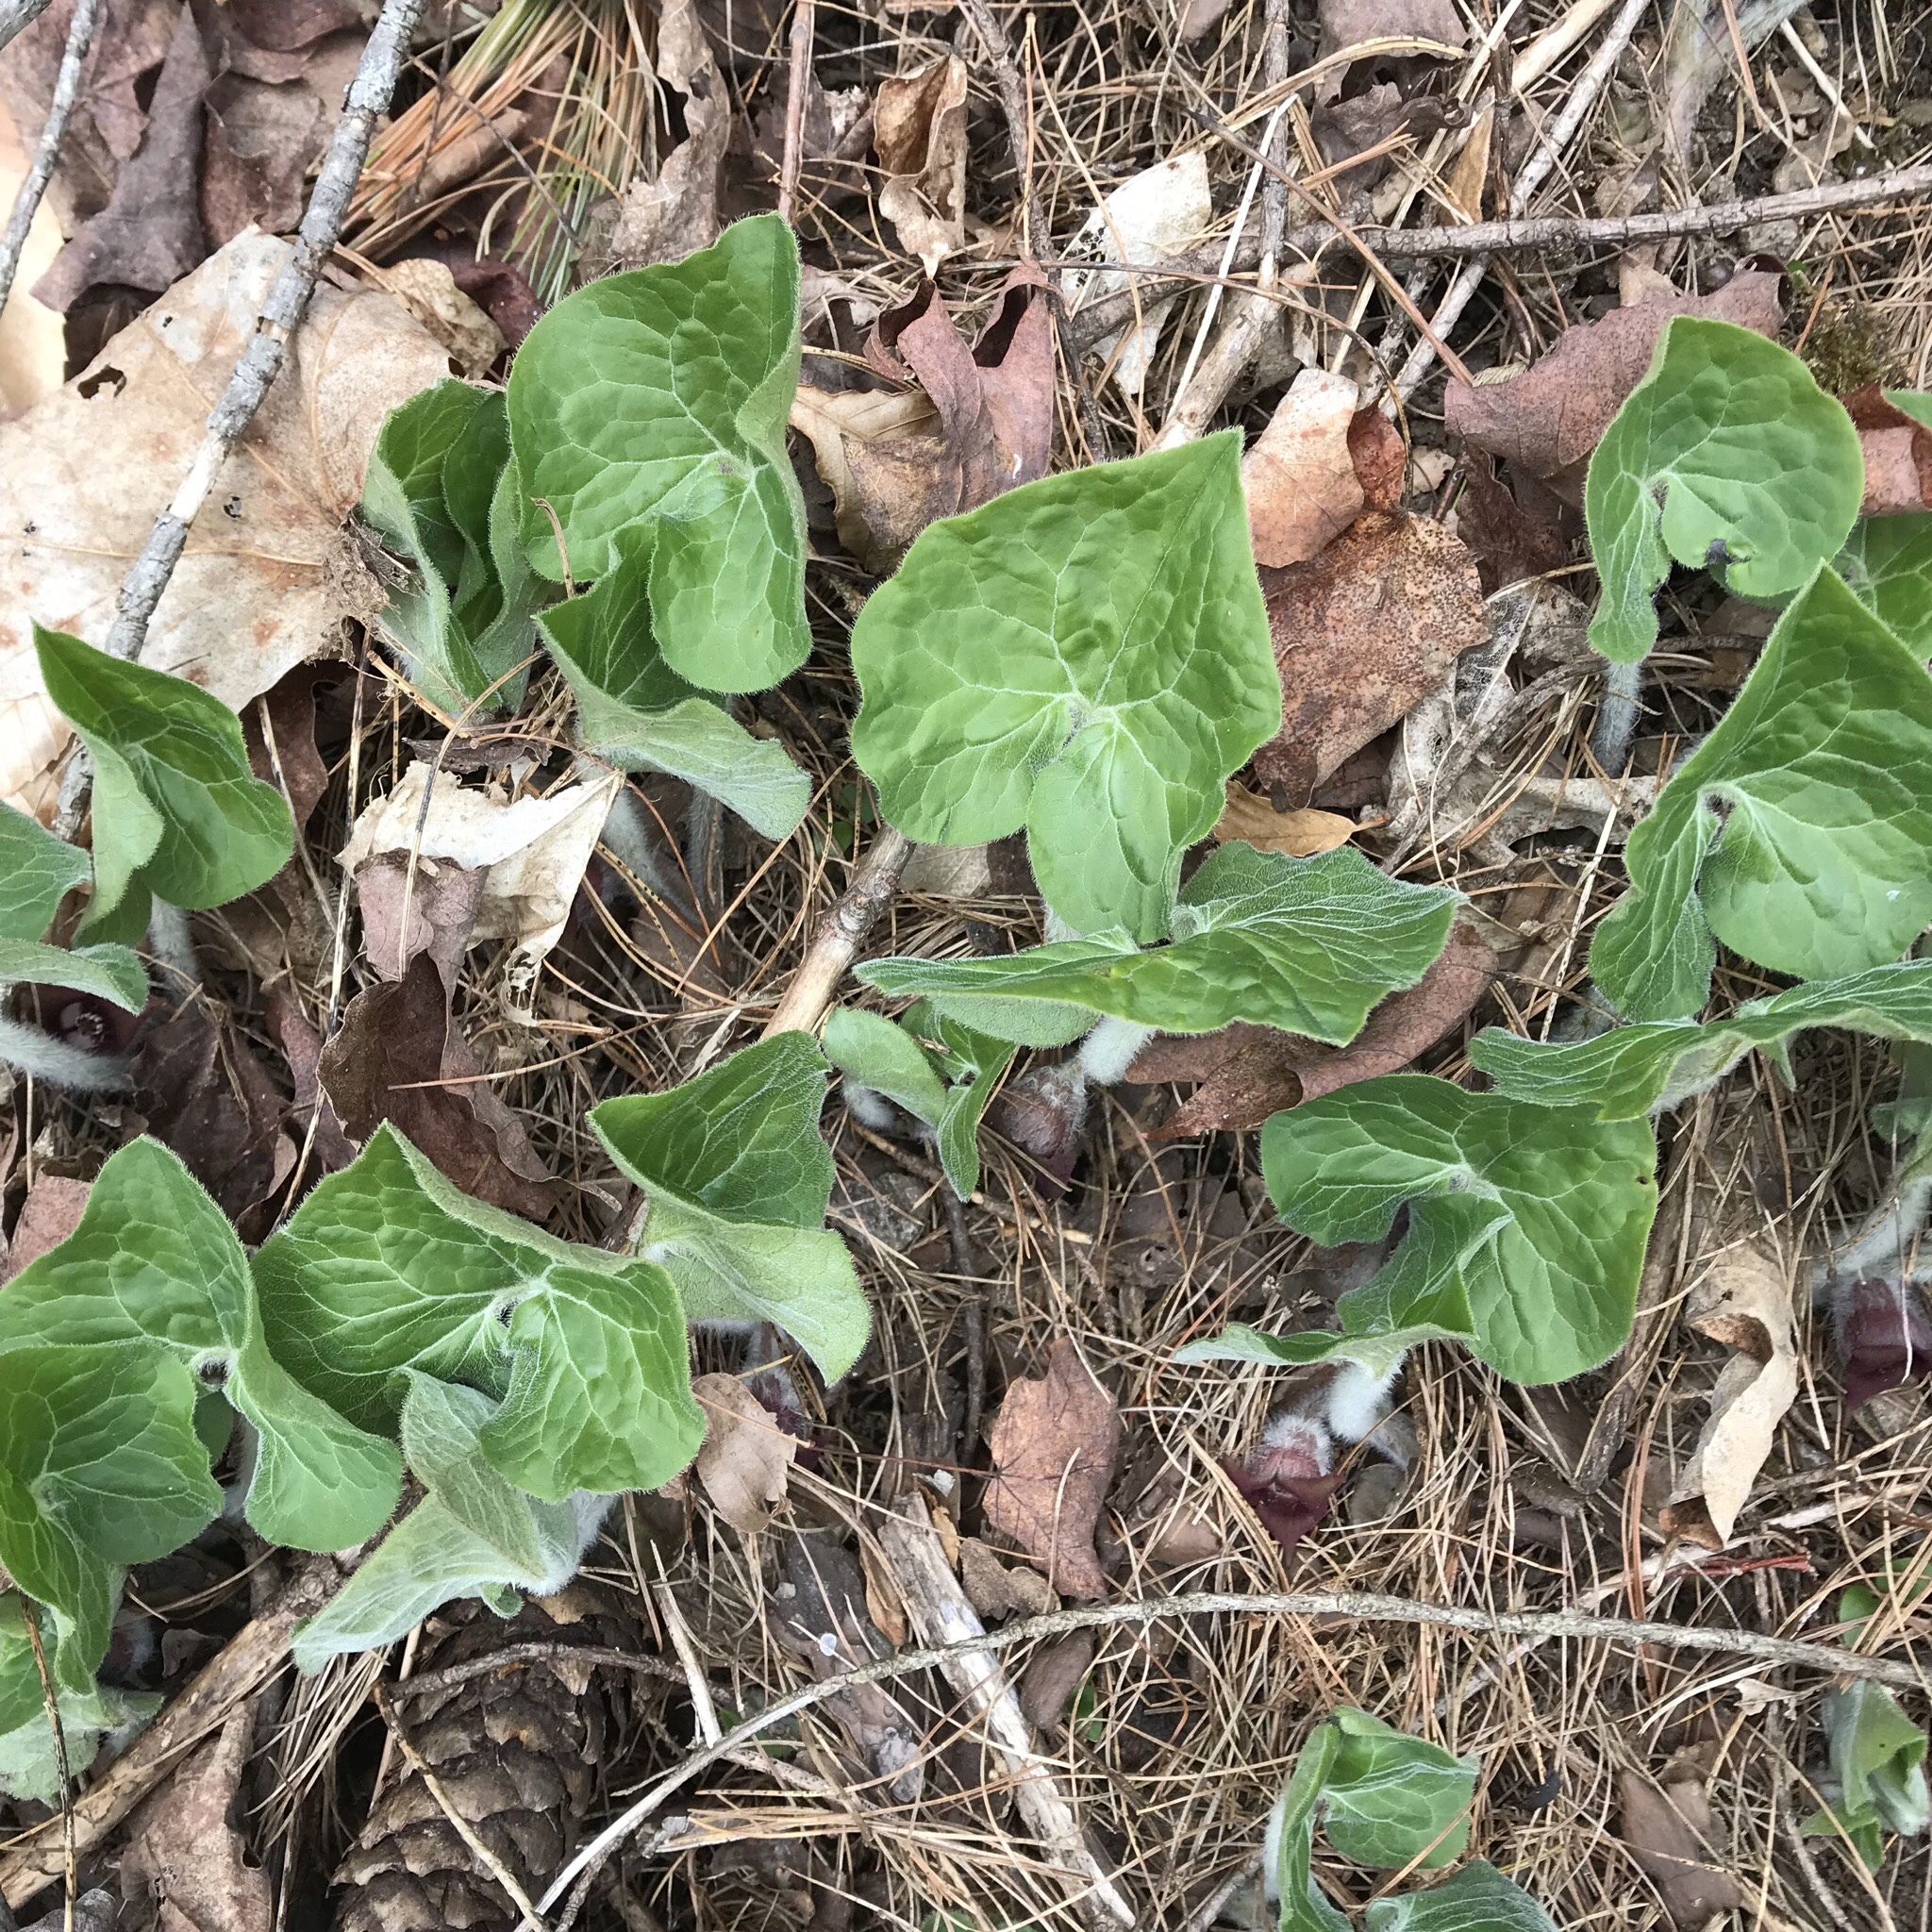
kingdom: Plantae
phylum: Tracheophyta
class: Magnoliopsida
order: Piperales
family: Aristolochiaceae
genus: Asarum
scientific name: Asarum canadense
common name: Wild ginger
